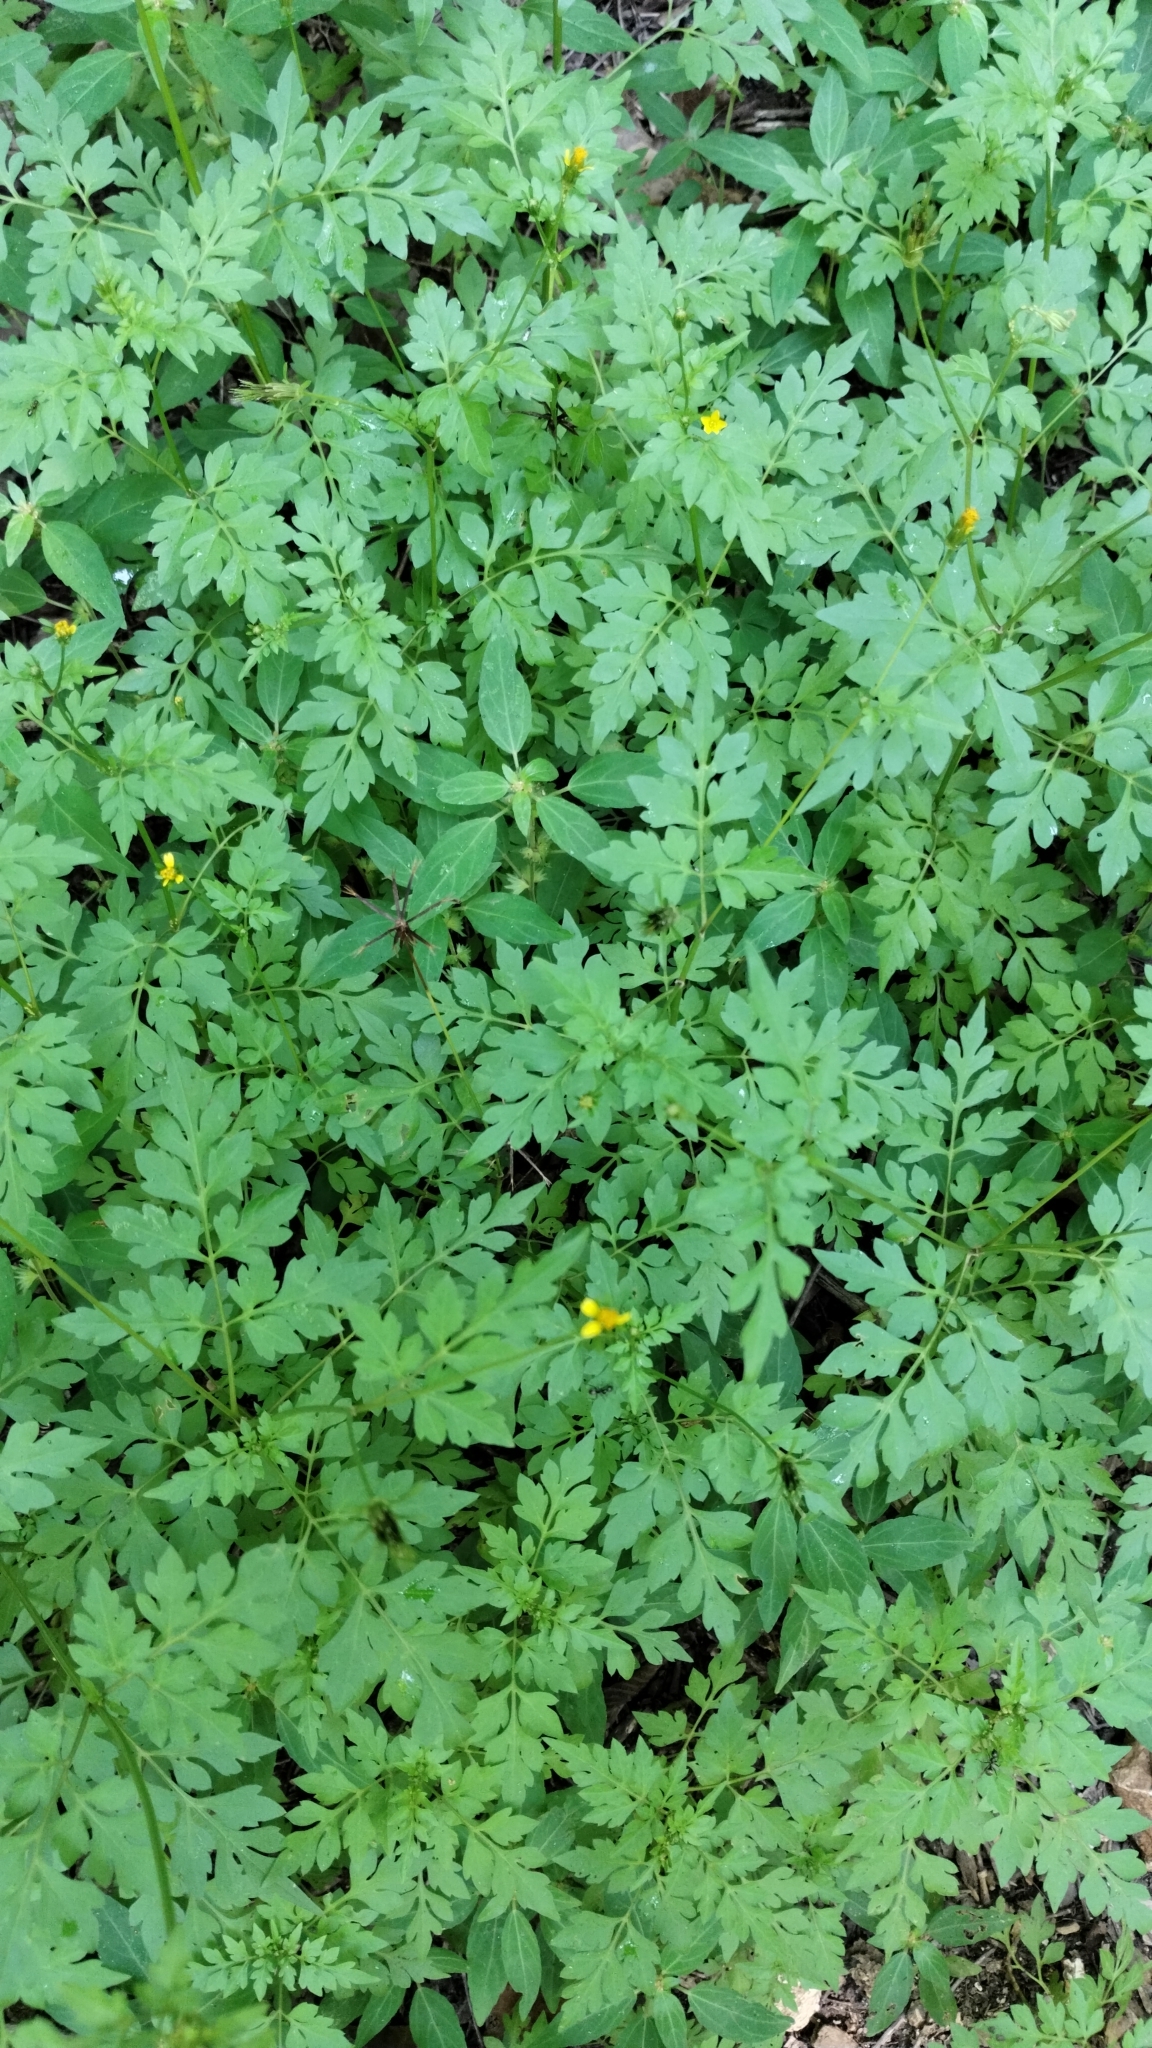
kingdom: Plantae
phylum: Tracheophyta
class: Magnoliopsida
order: Asterales
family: Asteraceae
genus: Bidens
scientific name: Bidens bipinnata
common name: Spanish-needles
